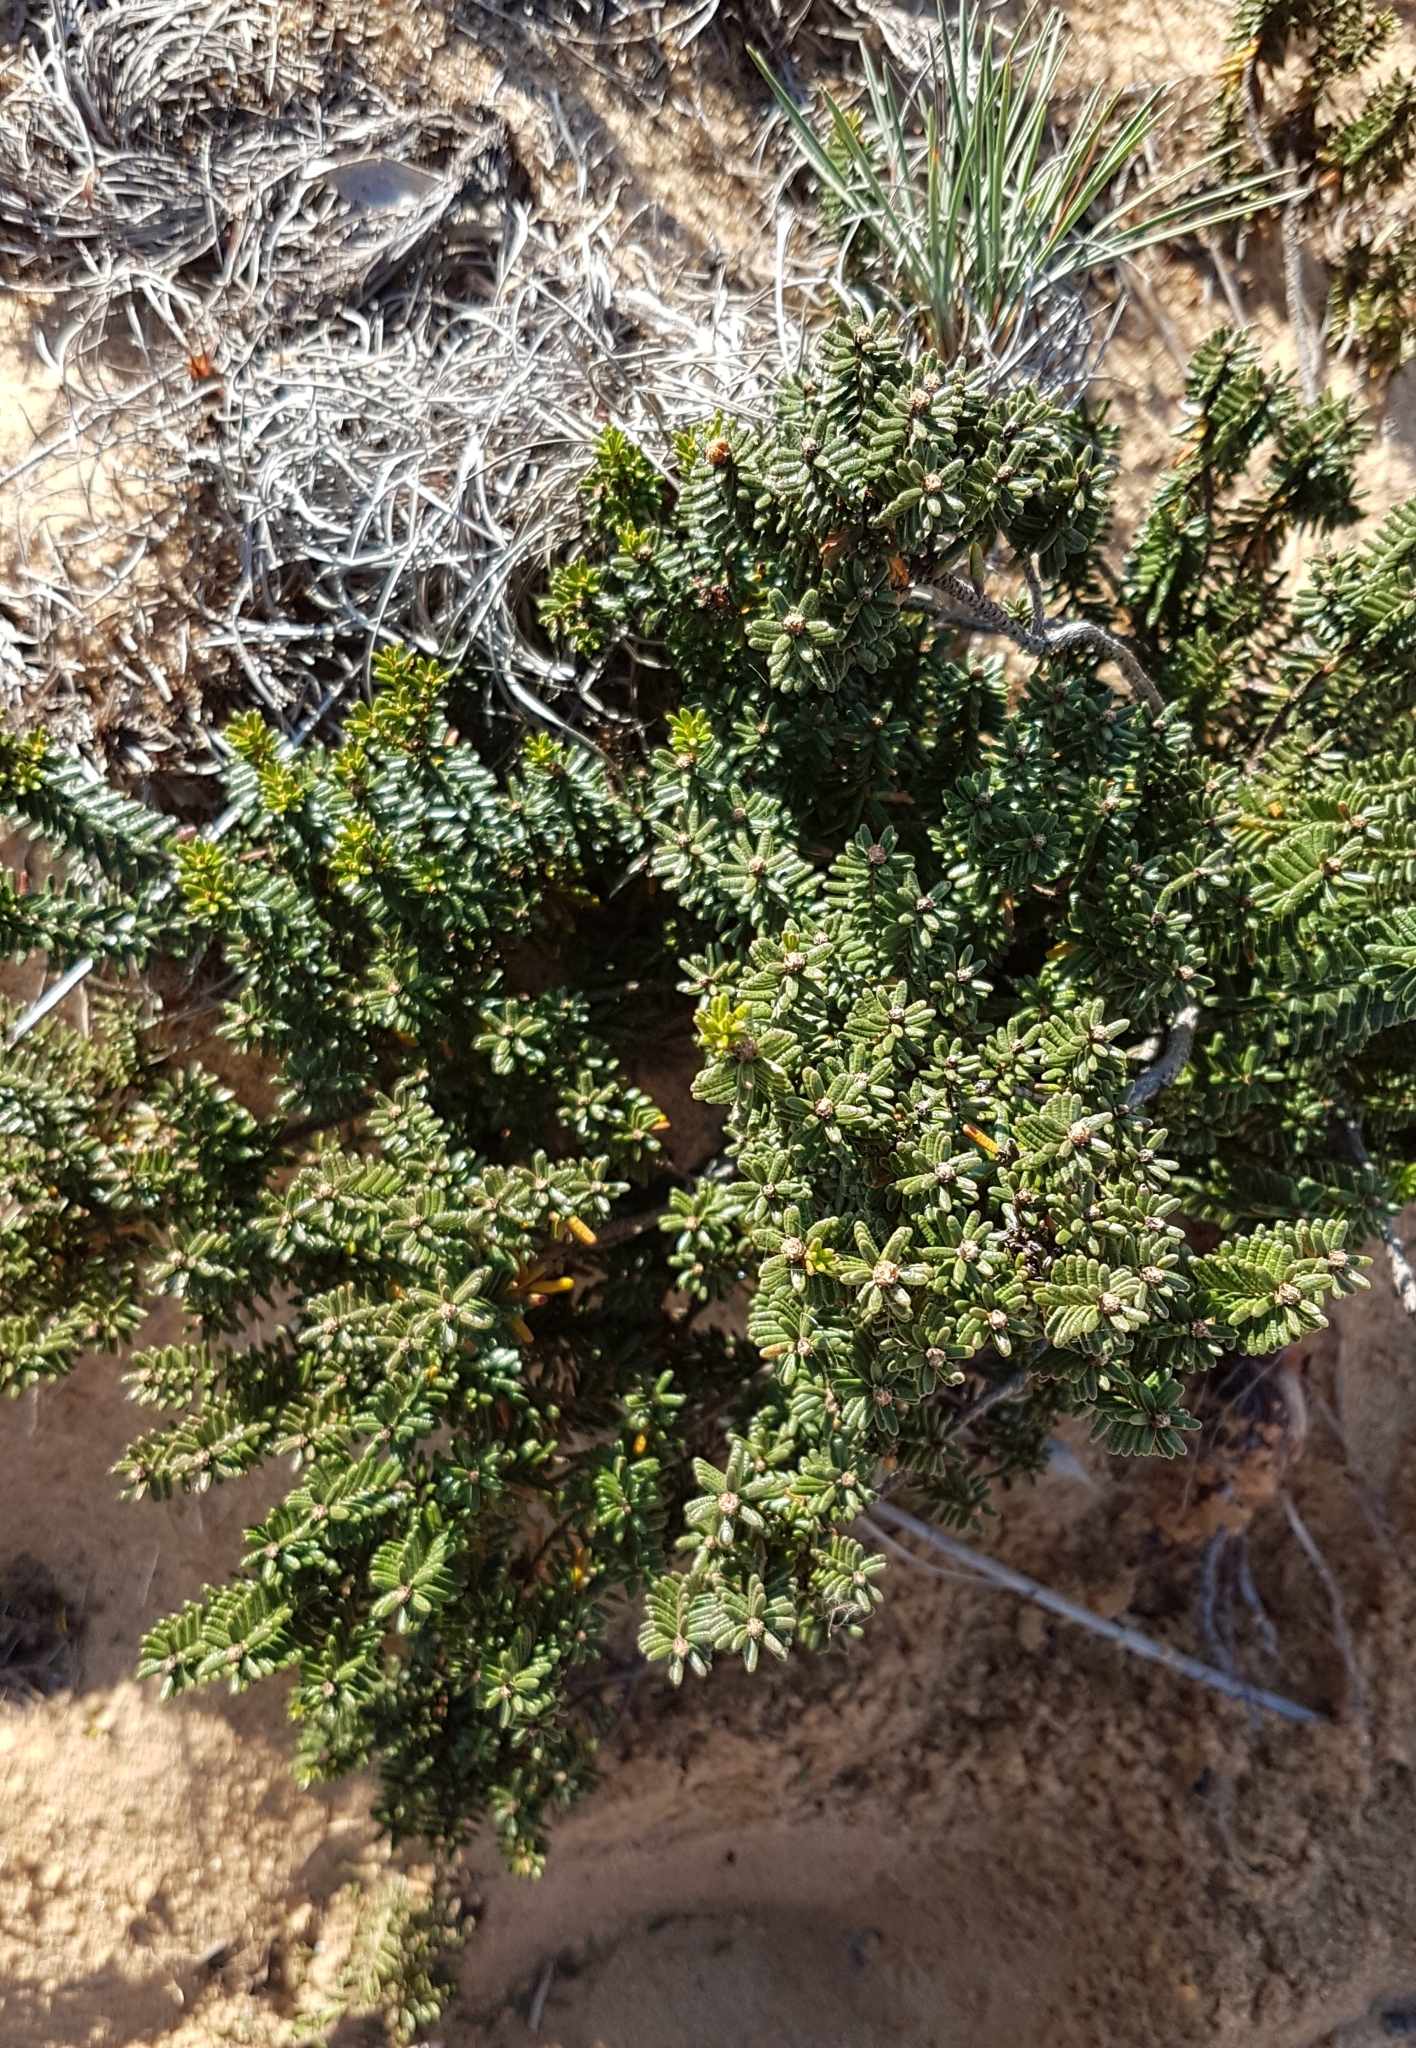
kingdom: Plantae
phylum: Tracheophyta
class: Magnoliopsida
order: Ericales
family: Ericaceae
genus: Corema
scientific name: Corema album
